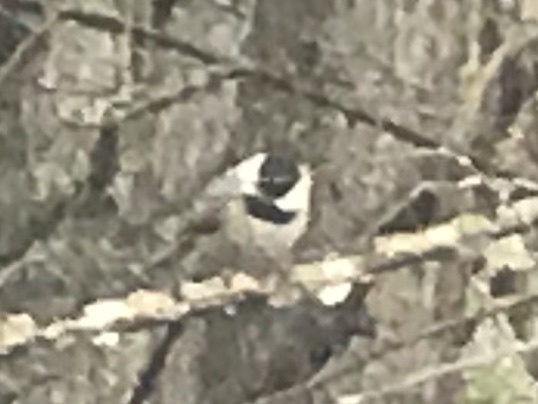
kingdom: Animalia
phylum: Chordata
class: Aves
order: Passeriformes
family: Paridae
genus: Poecile
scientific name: Poecile carolinensis
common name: Carolina chickadee
